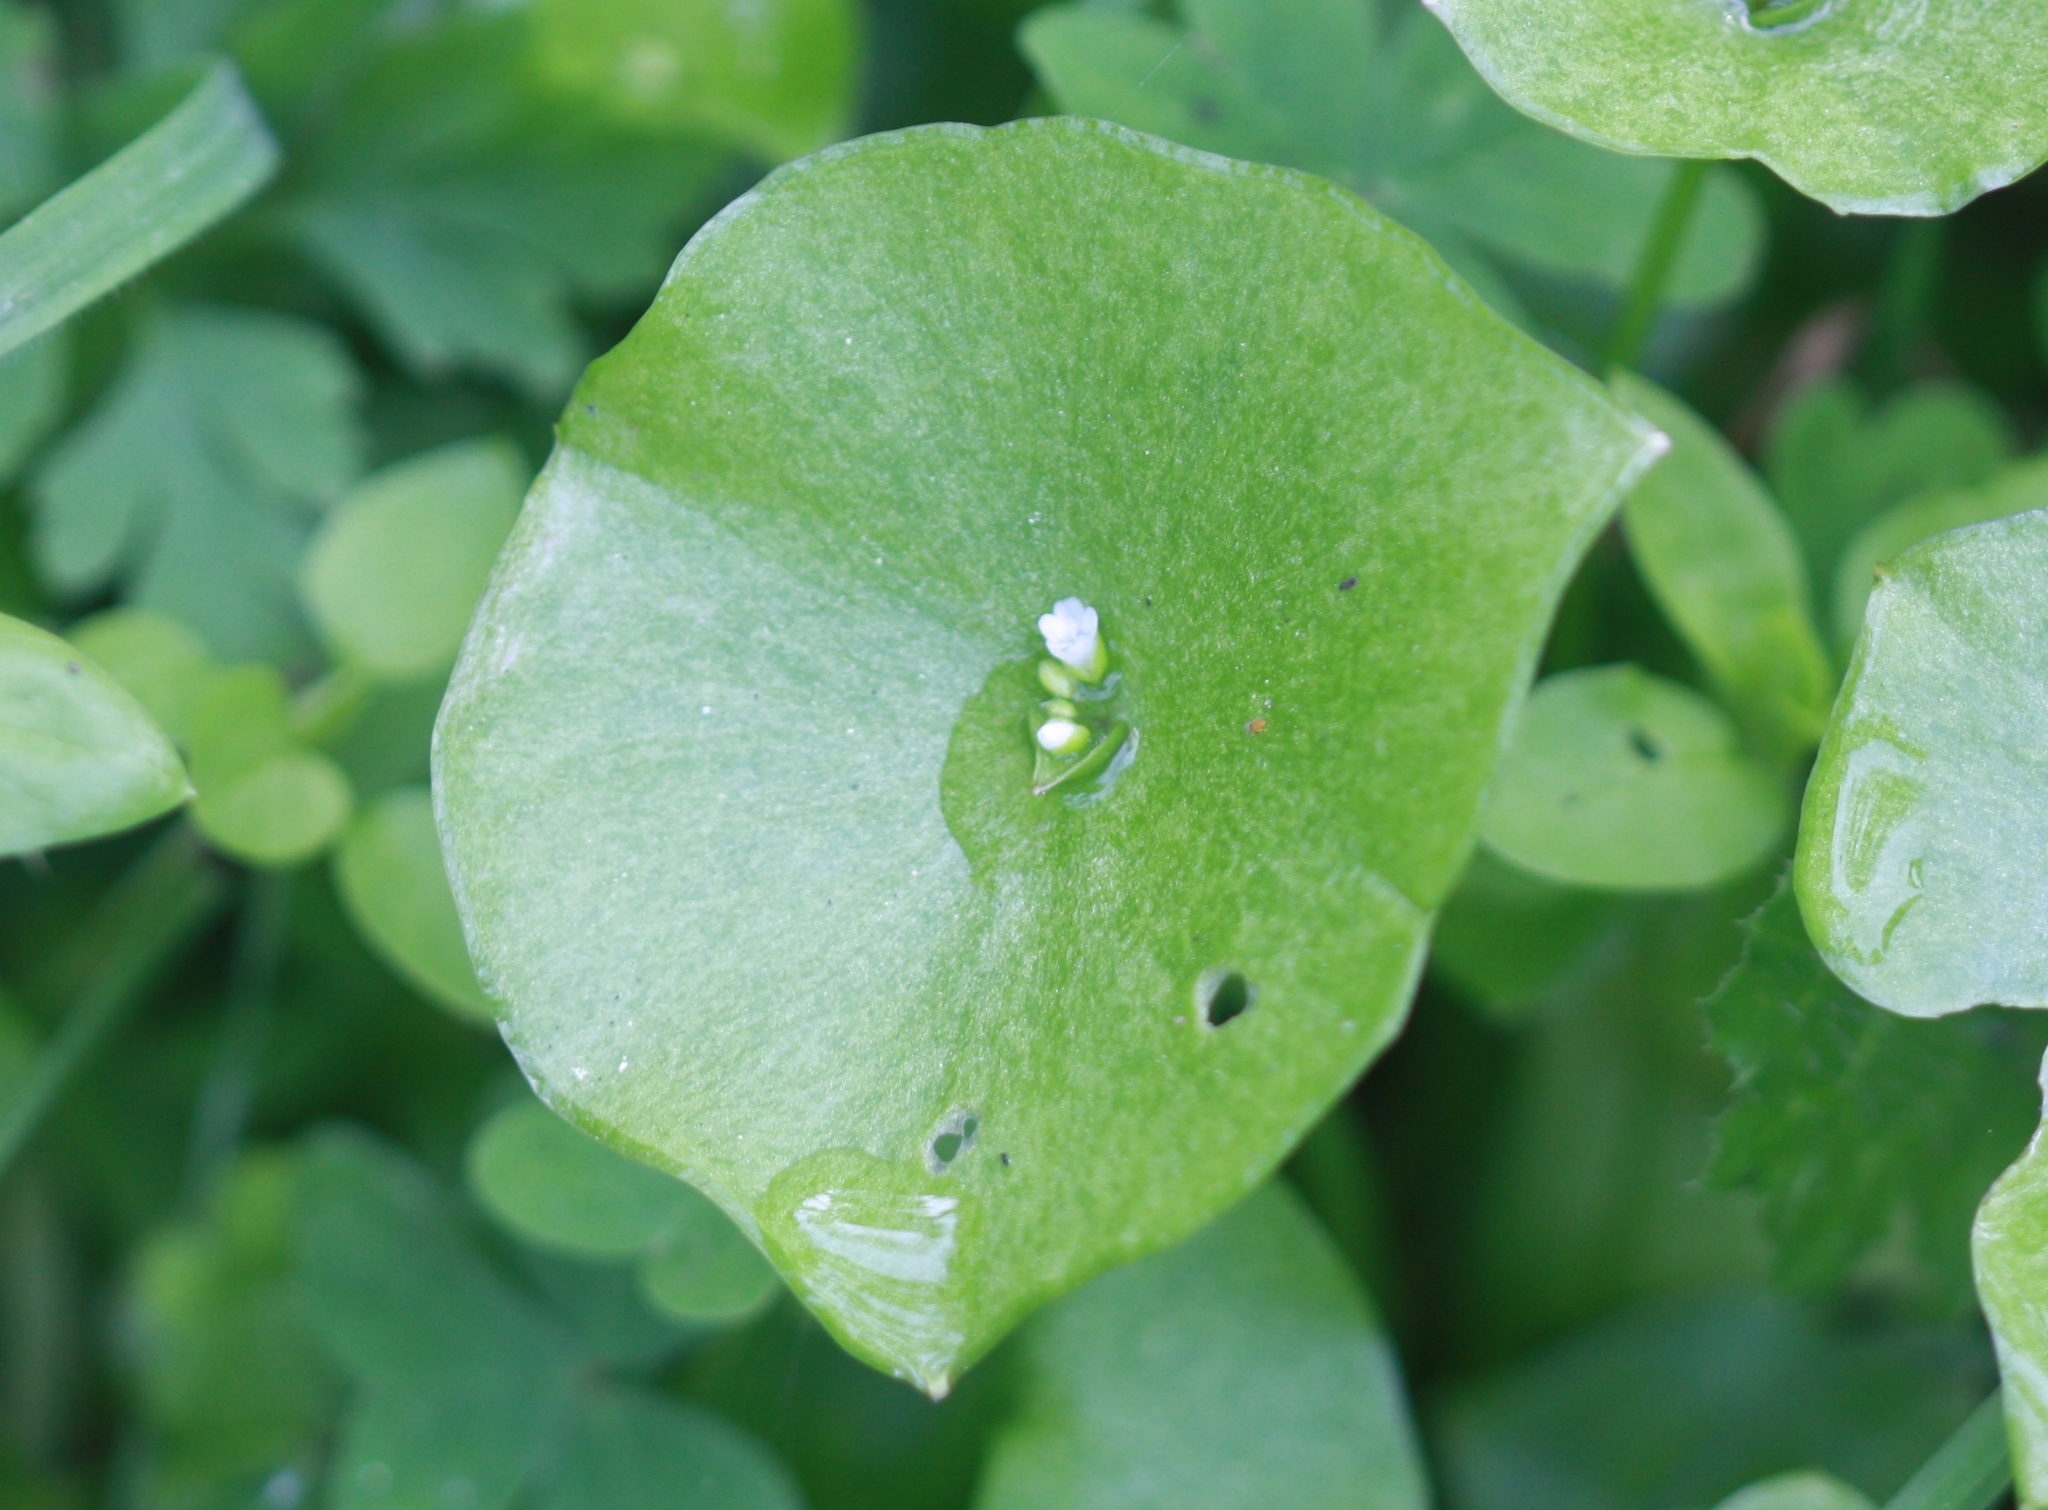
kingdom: Plantae
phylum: Tracheophyta
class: Magnoliopsida
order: Caryophyllales
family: Montiaceae
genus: Claytonia
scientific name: Claytonia perfoliata
